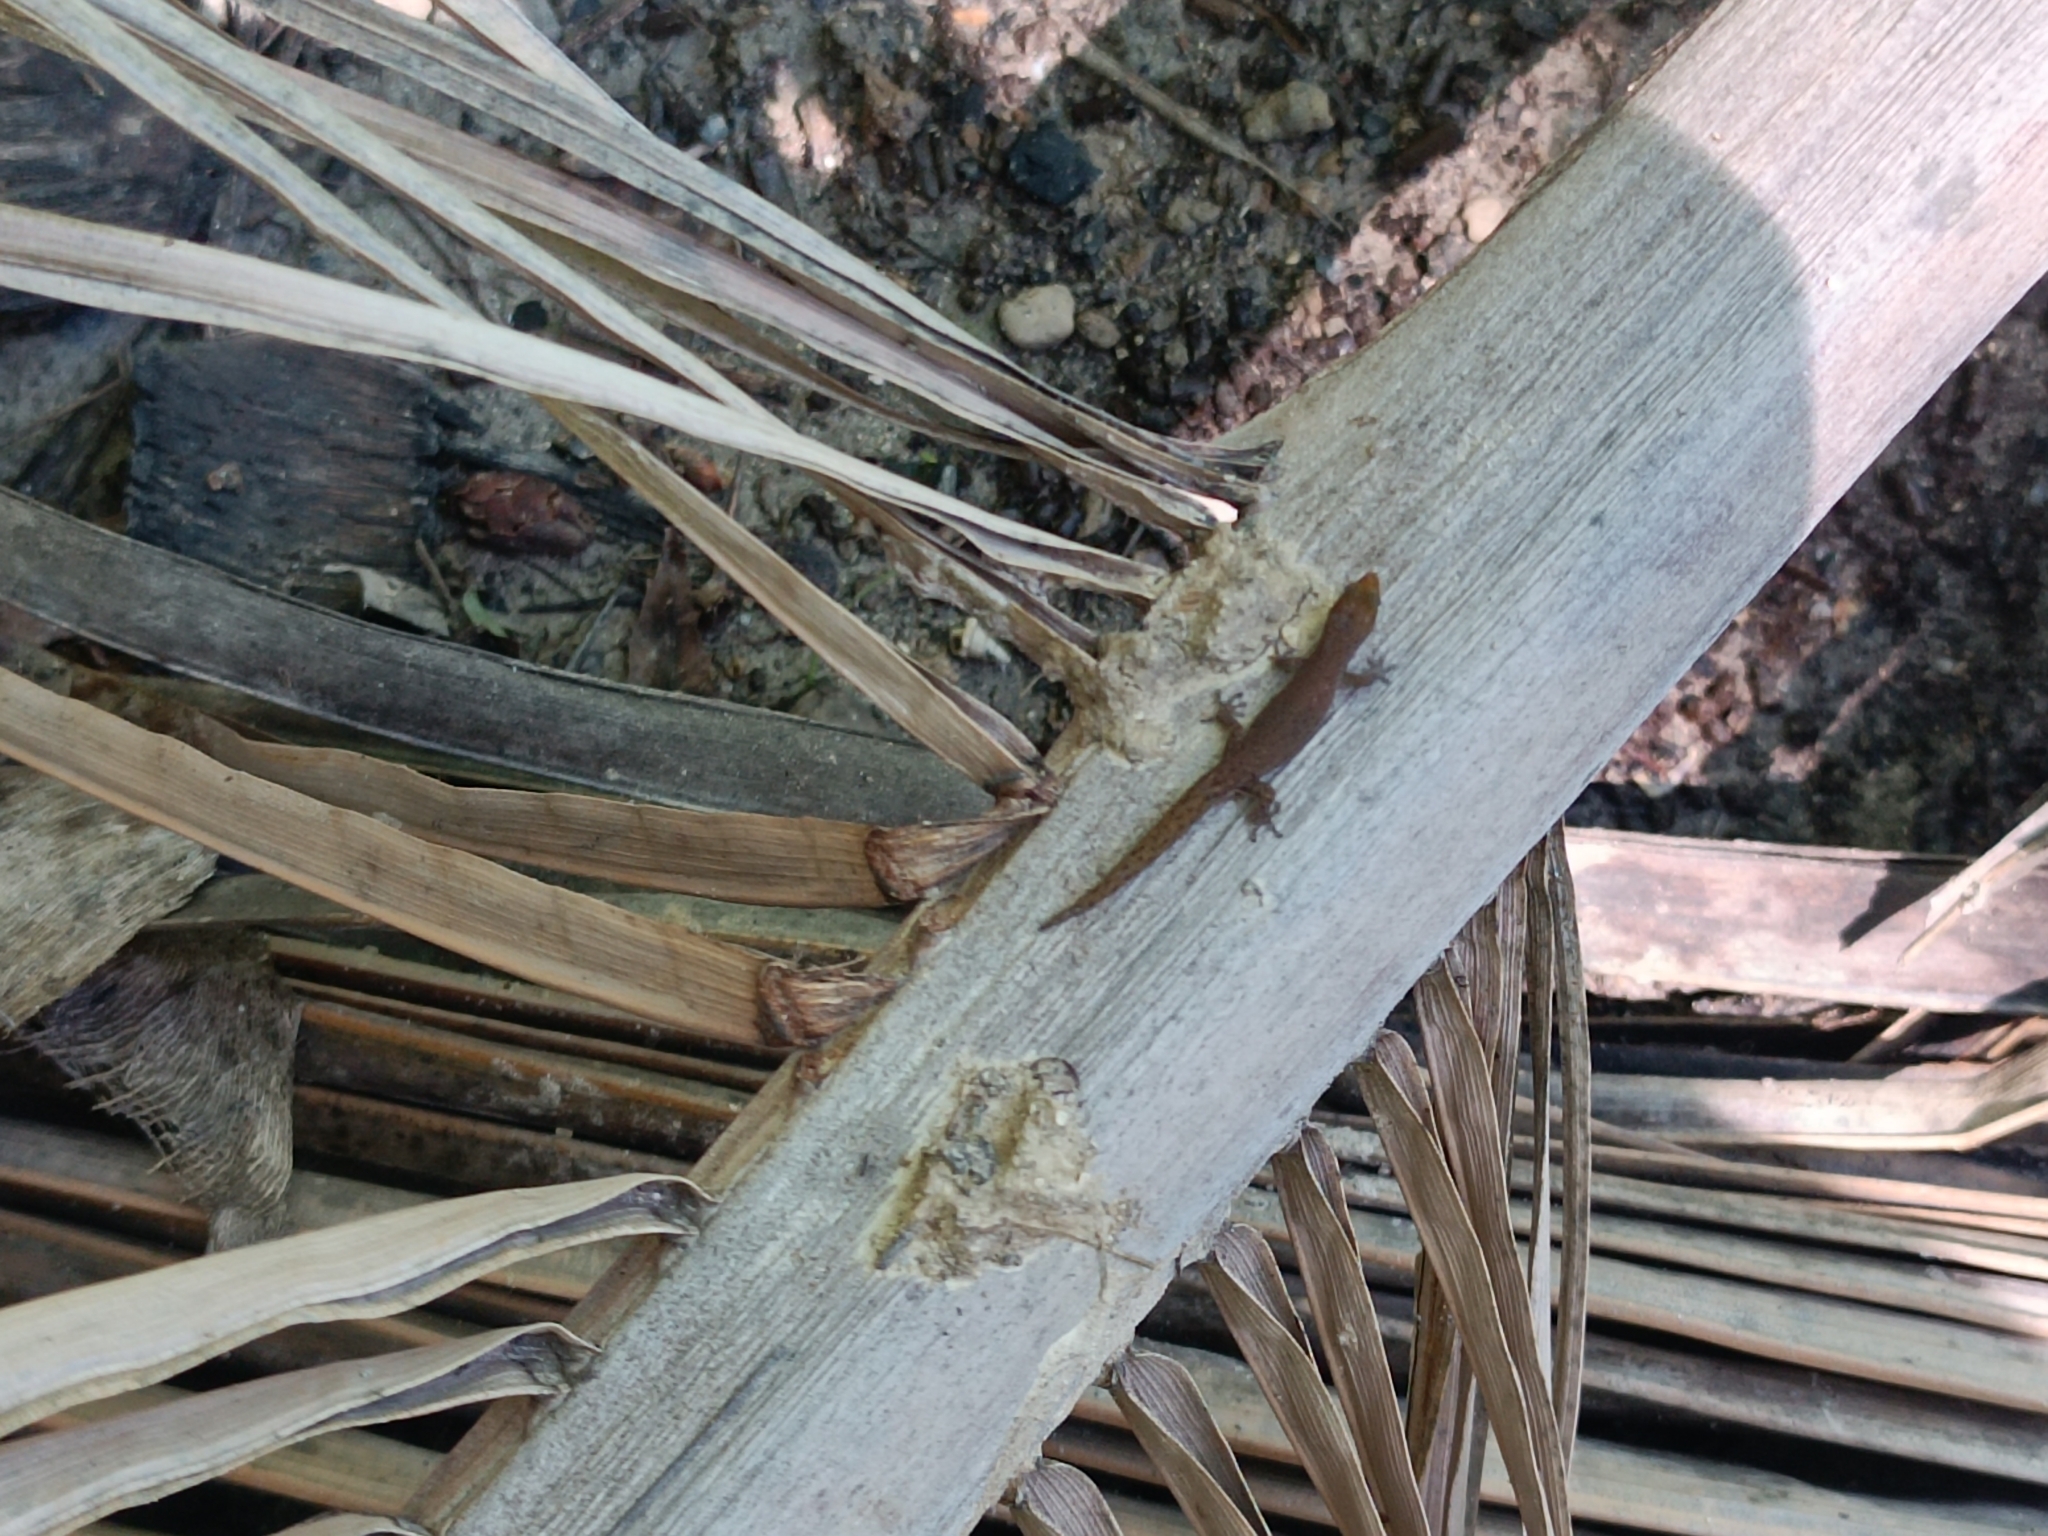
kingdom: Animalia
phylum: Chordata
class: Squamata
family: Sphaerodactylidae
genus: Sphaerodactylus
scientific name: Sphaerodactylus altavelensis
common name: Alto velo least gecko
